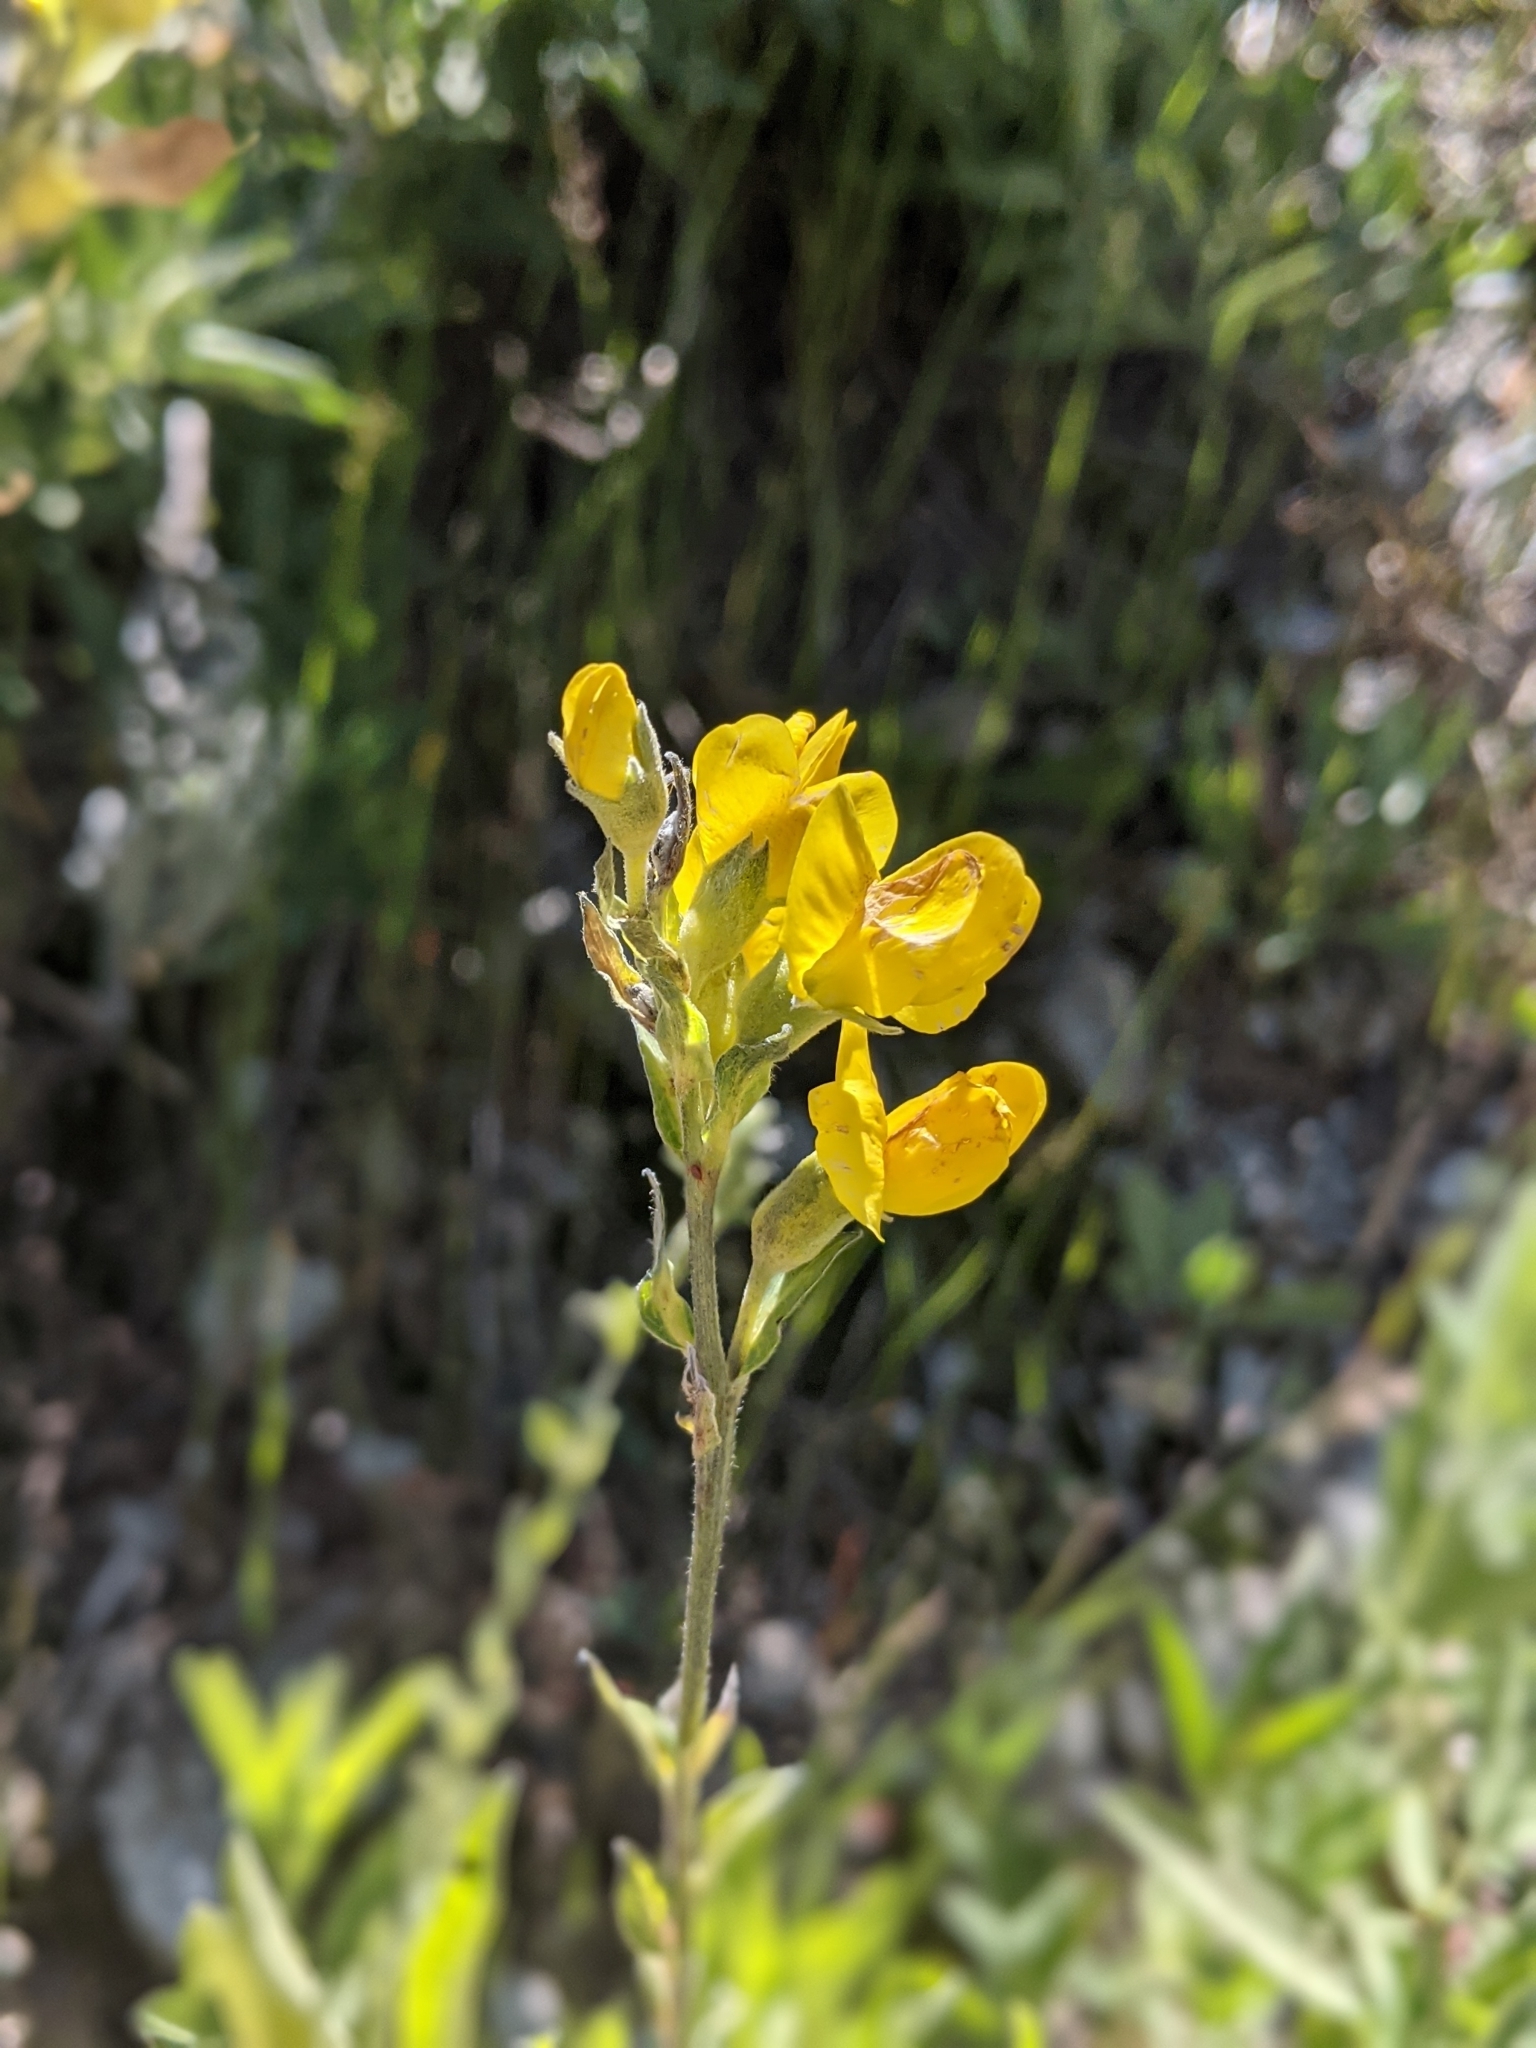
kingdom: Plantae
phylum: Tracheophyta
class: Magnoliopsida
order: Fabales
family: Fabaceae
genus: Thermopsis
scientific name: Thermopsis montana
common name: False lupin
